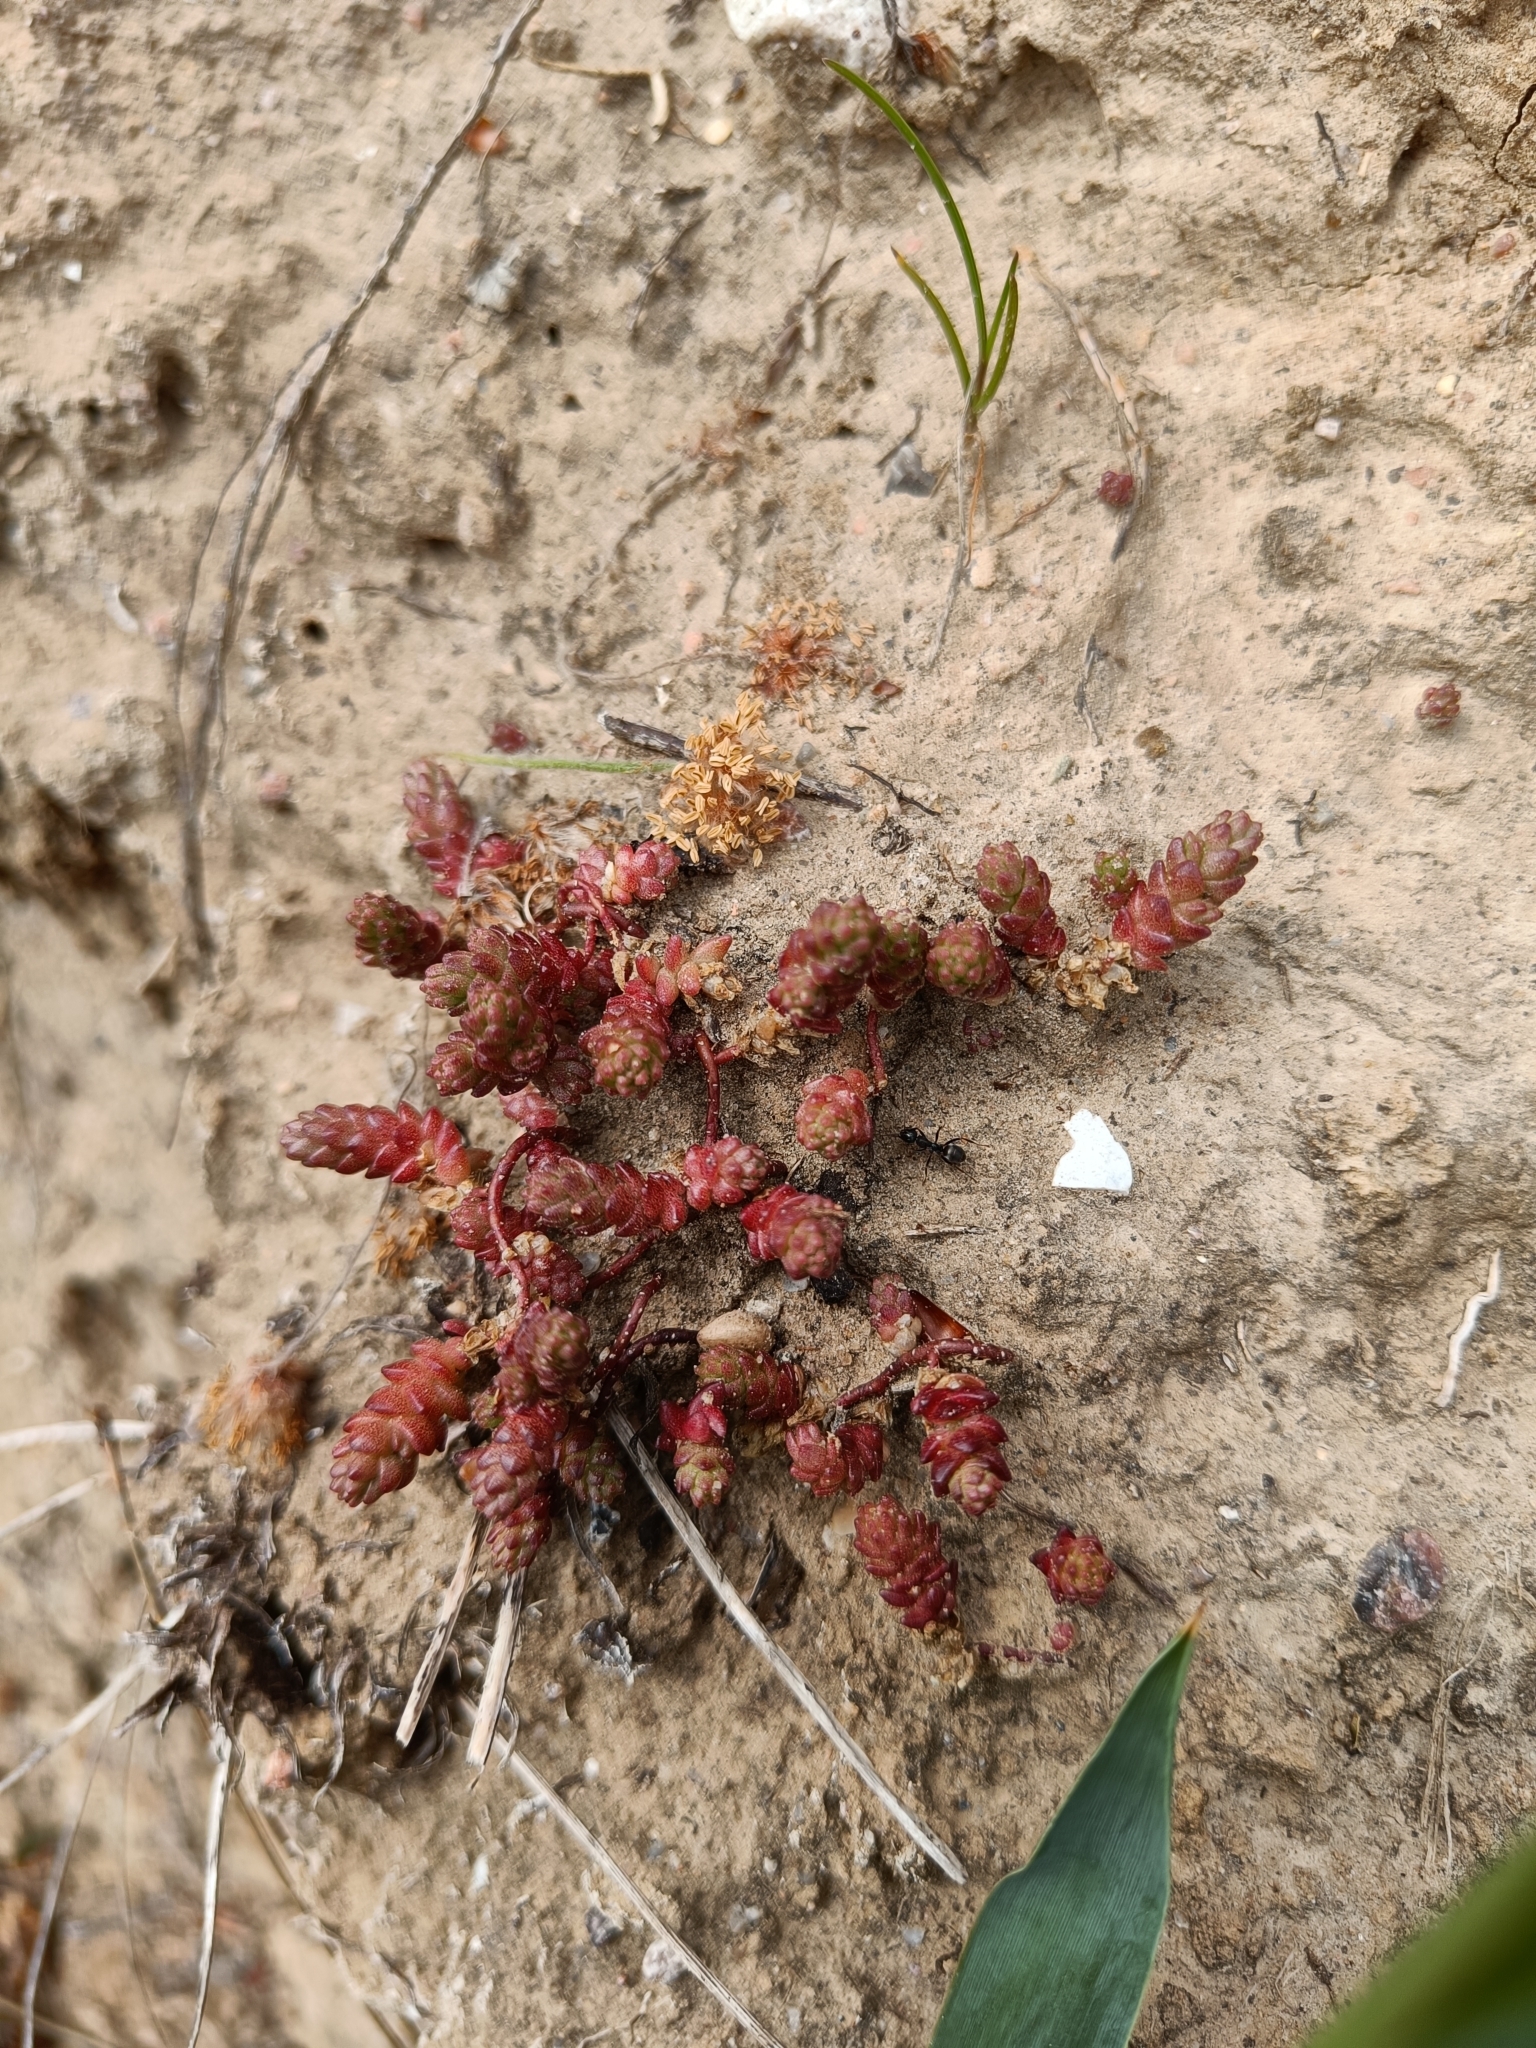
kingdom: Plantae
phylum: Tracheophyta
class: Magnoliopsida
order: Saxifragales
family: Crassulaceae
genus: Sedum
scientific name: Sedum acre
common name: Biting stonecrop
